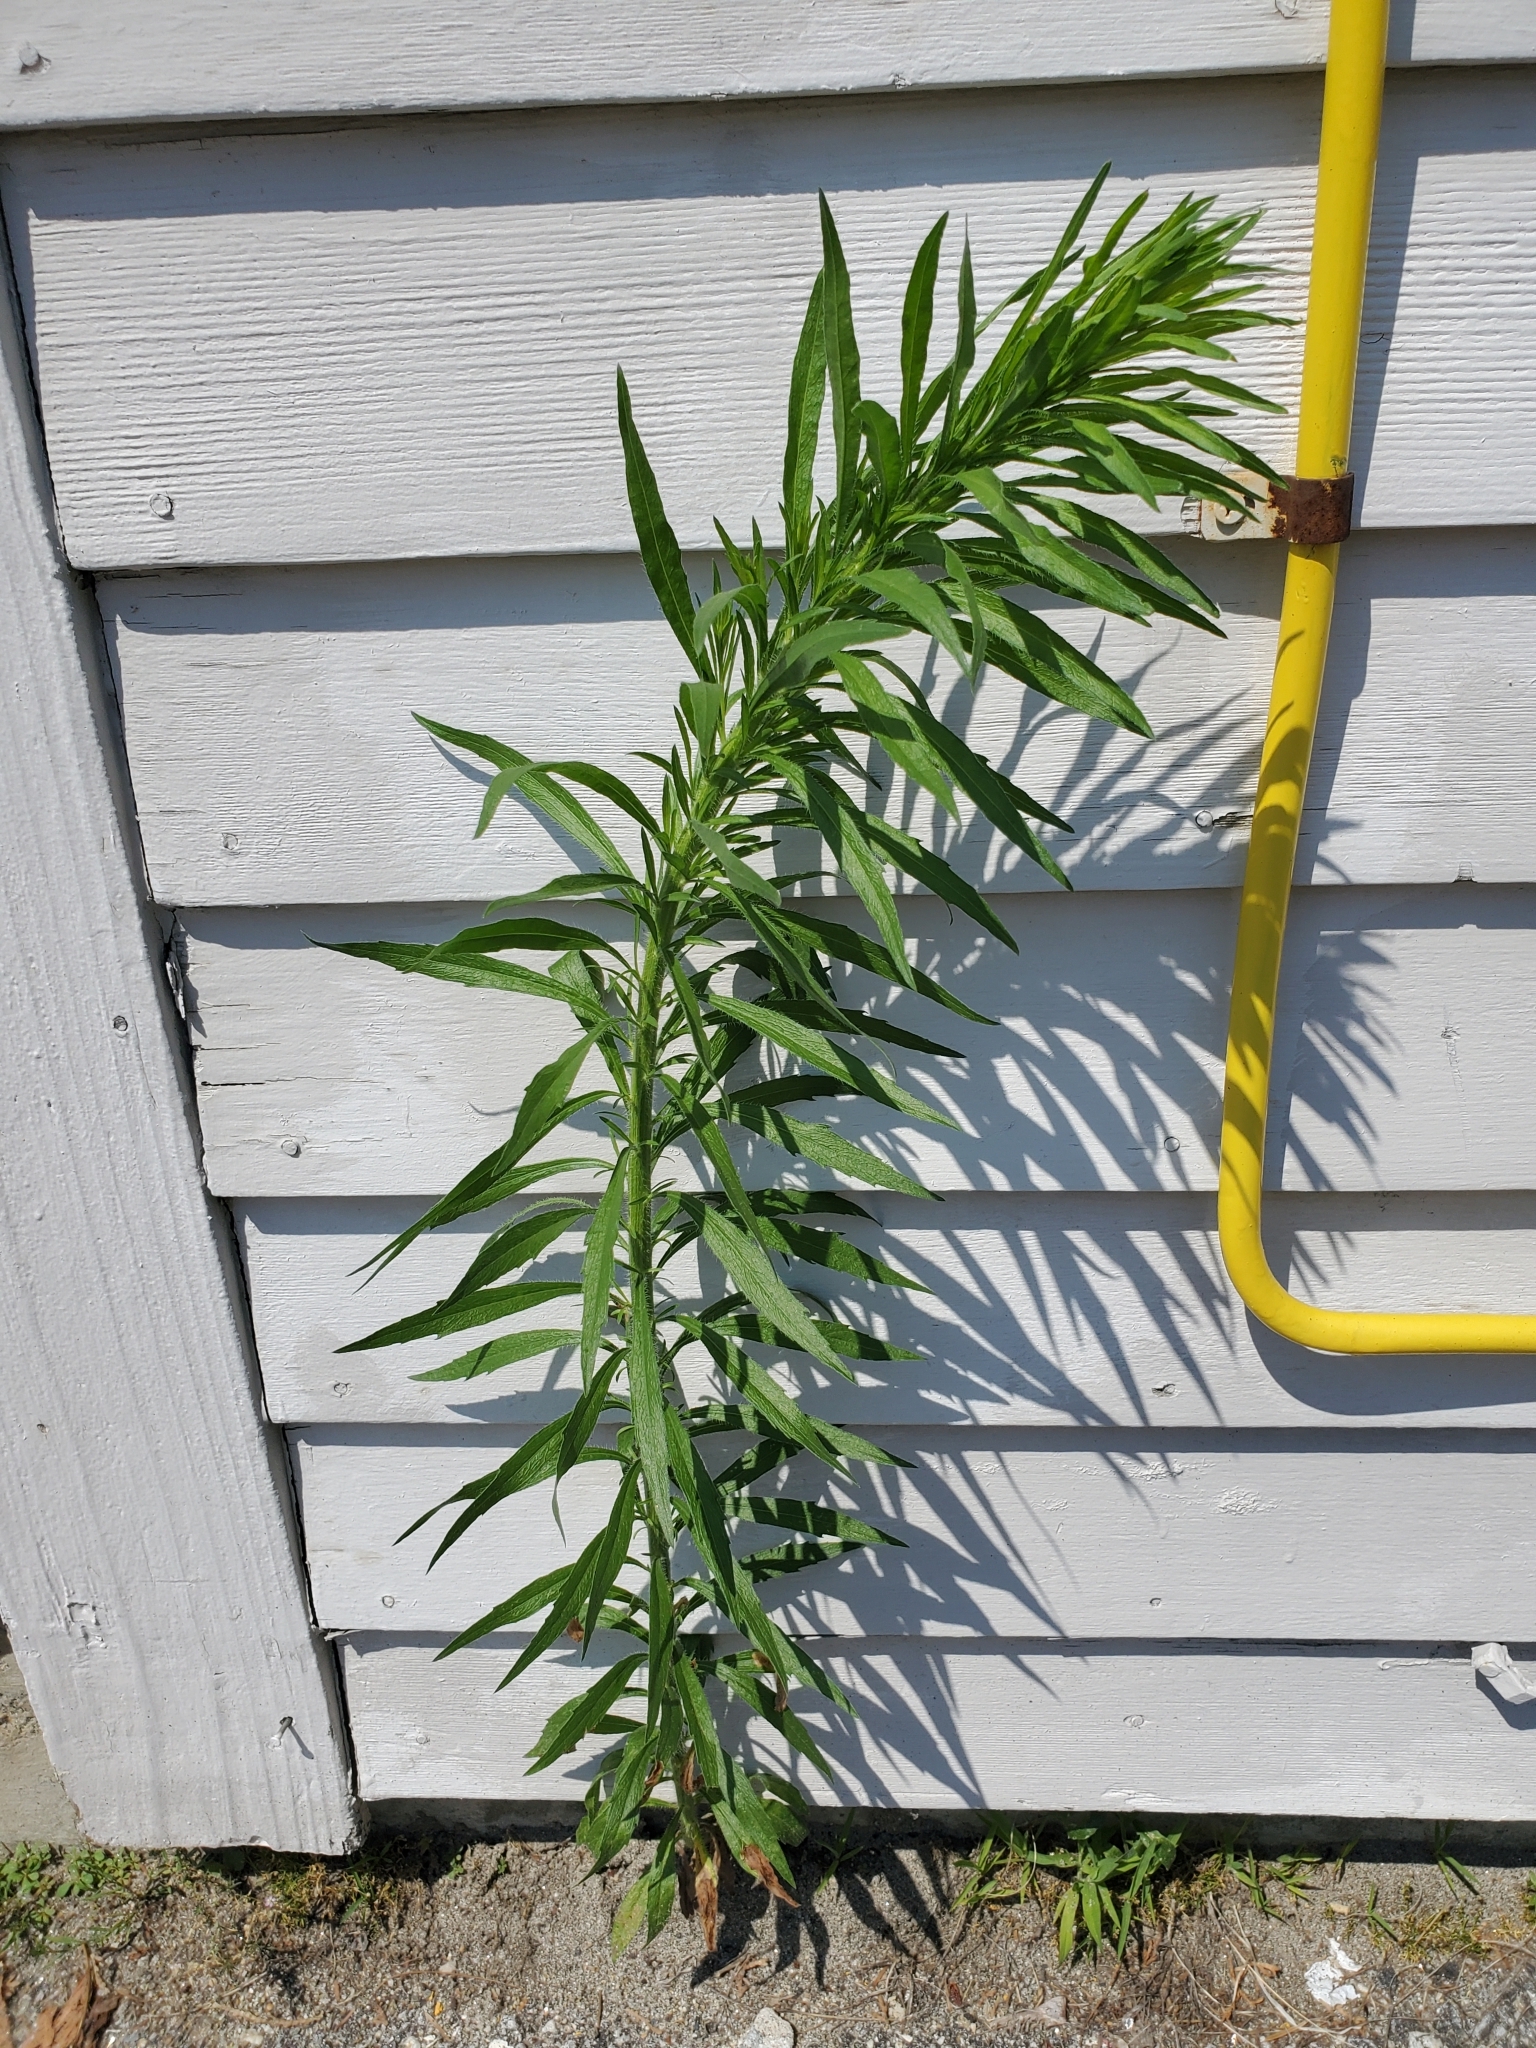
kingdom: Plantae
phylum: Tracheophyta
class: Magnoliopsida
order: Asterales
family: Asteraceae
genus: Erigeron
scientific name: Erigeron canadensis
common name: Canadian fleabane
